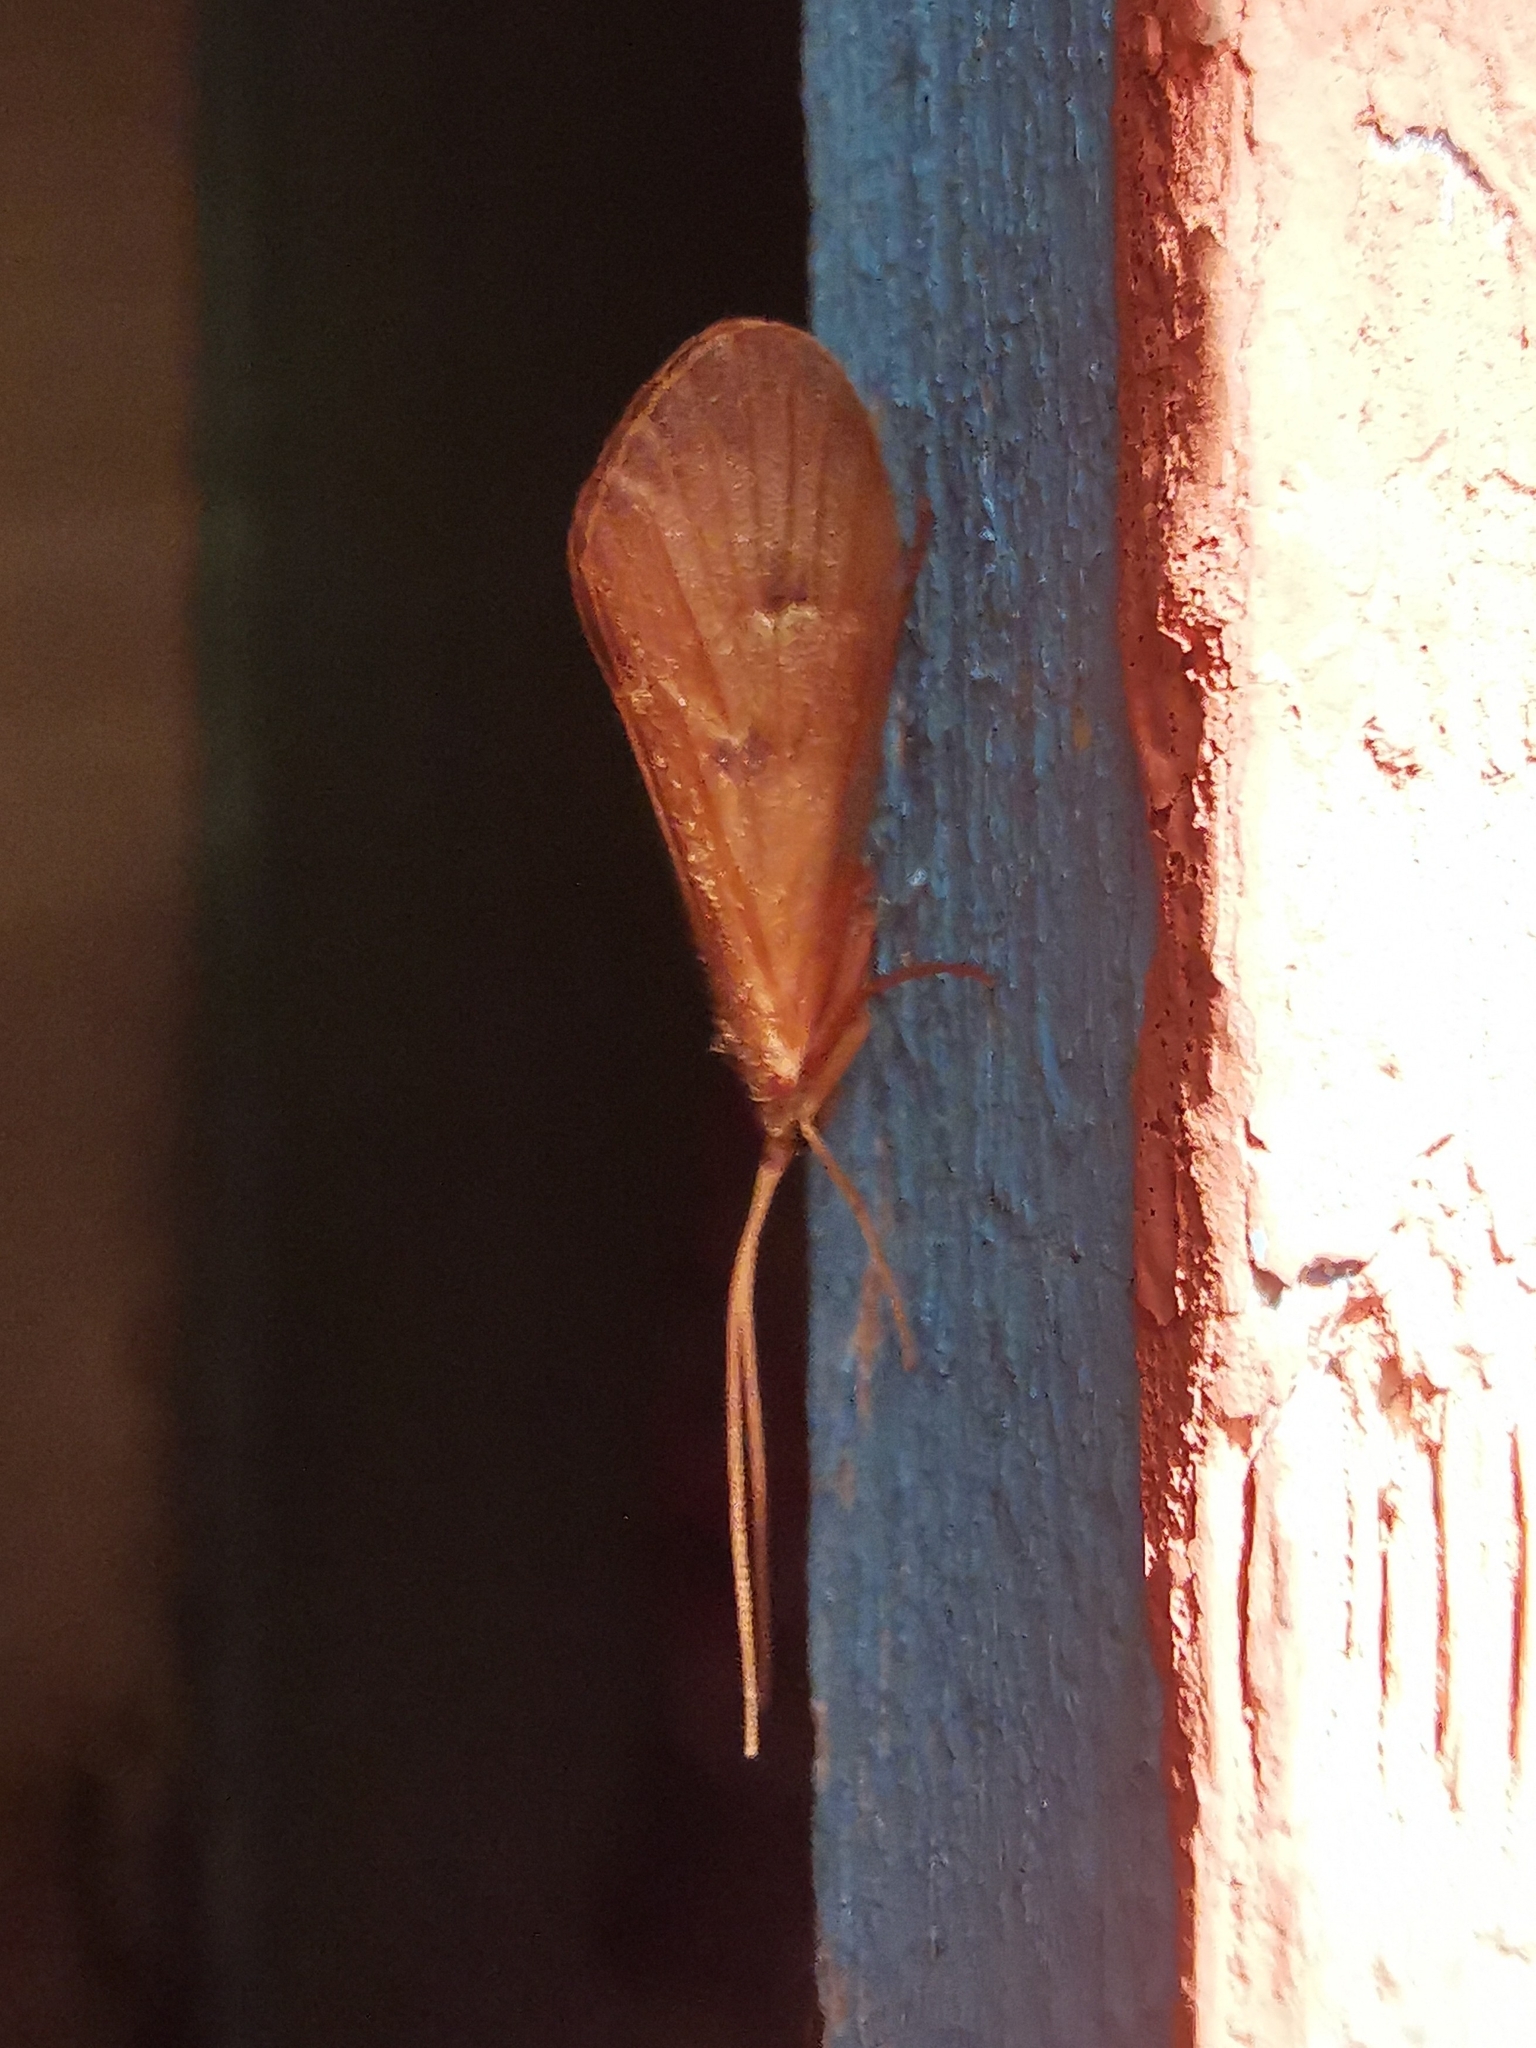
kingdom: Animalia
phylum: Arthropoda
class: Insecta
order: Trichoptera
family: Limnephilidae
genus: Onocosmoecus
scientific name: Onocosmoecus unicolor
